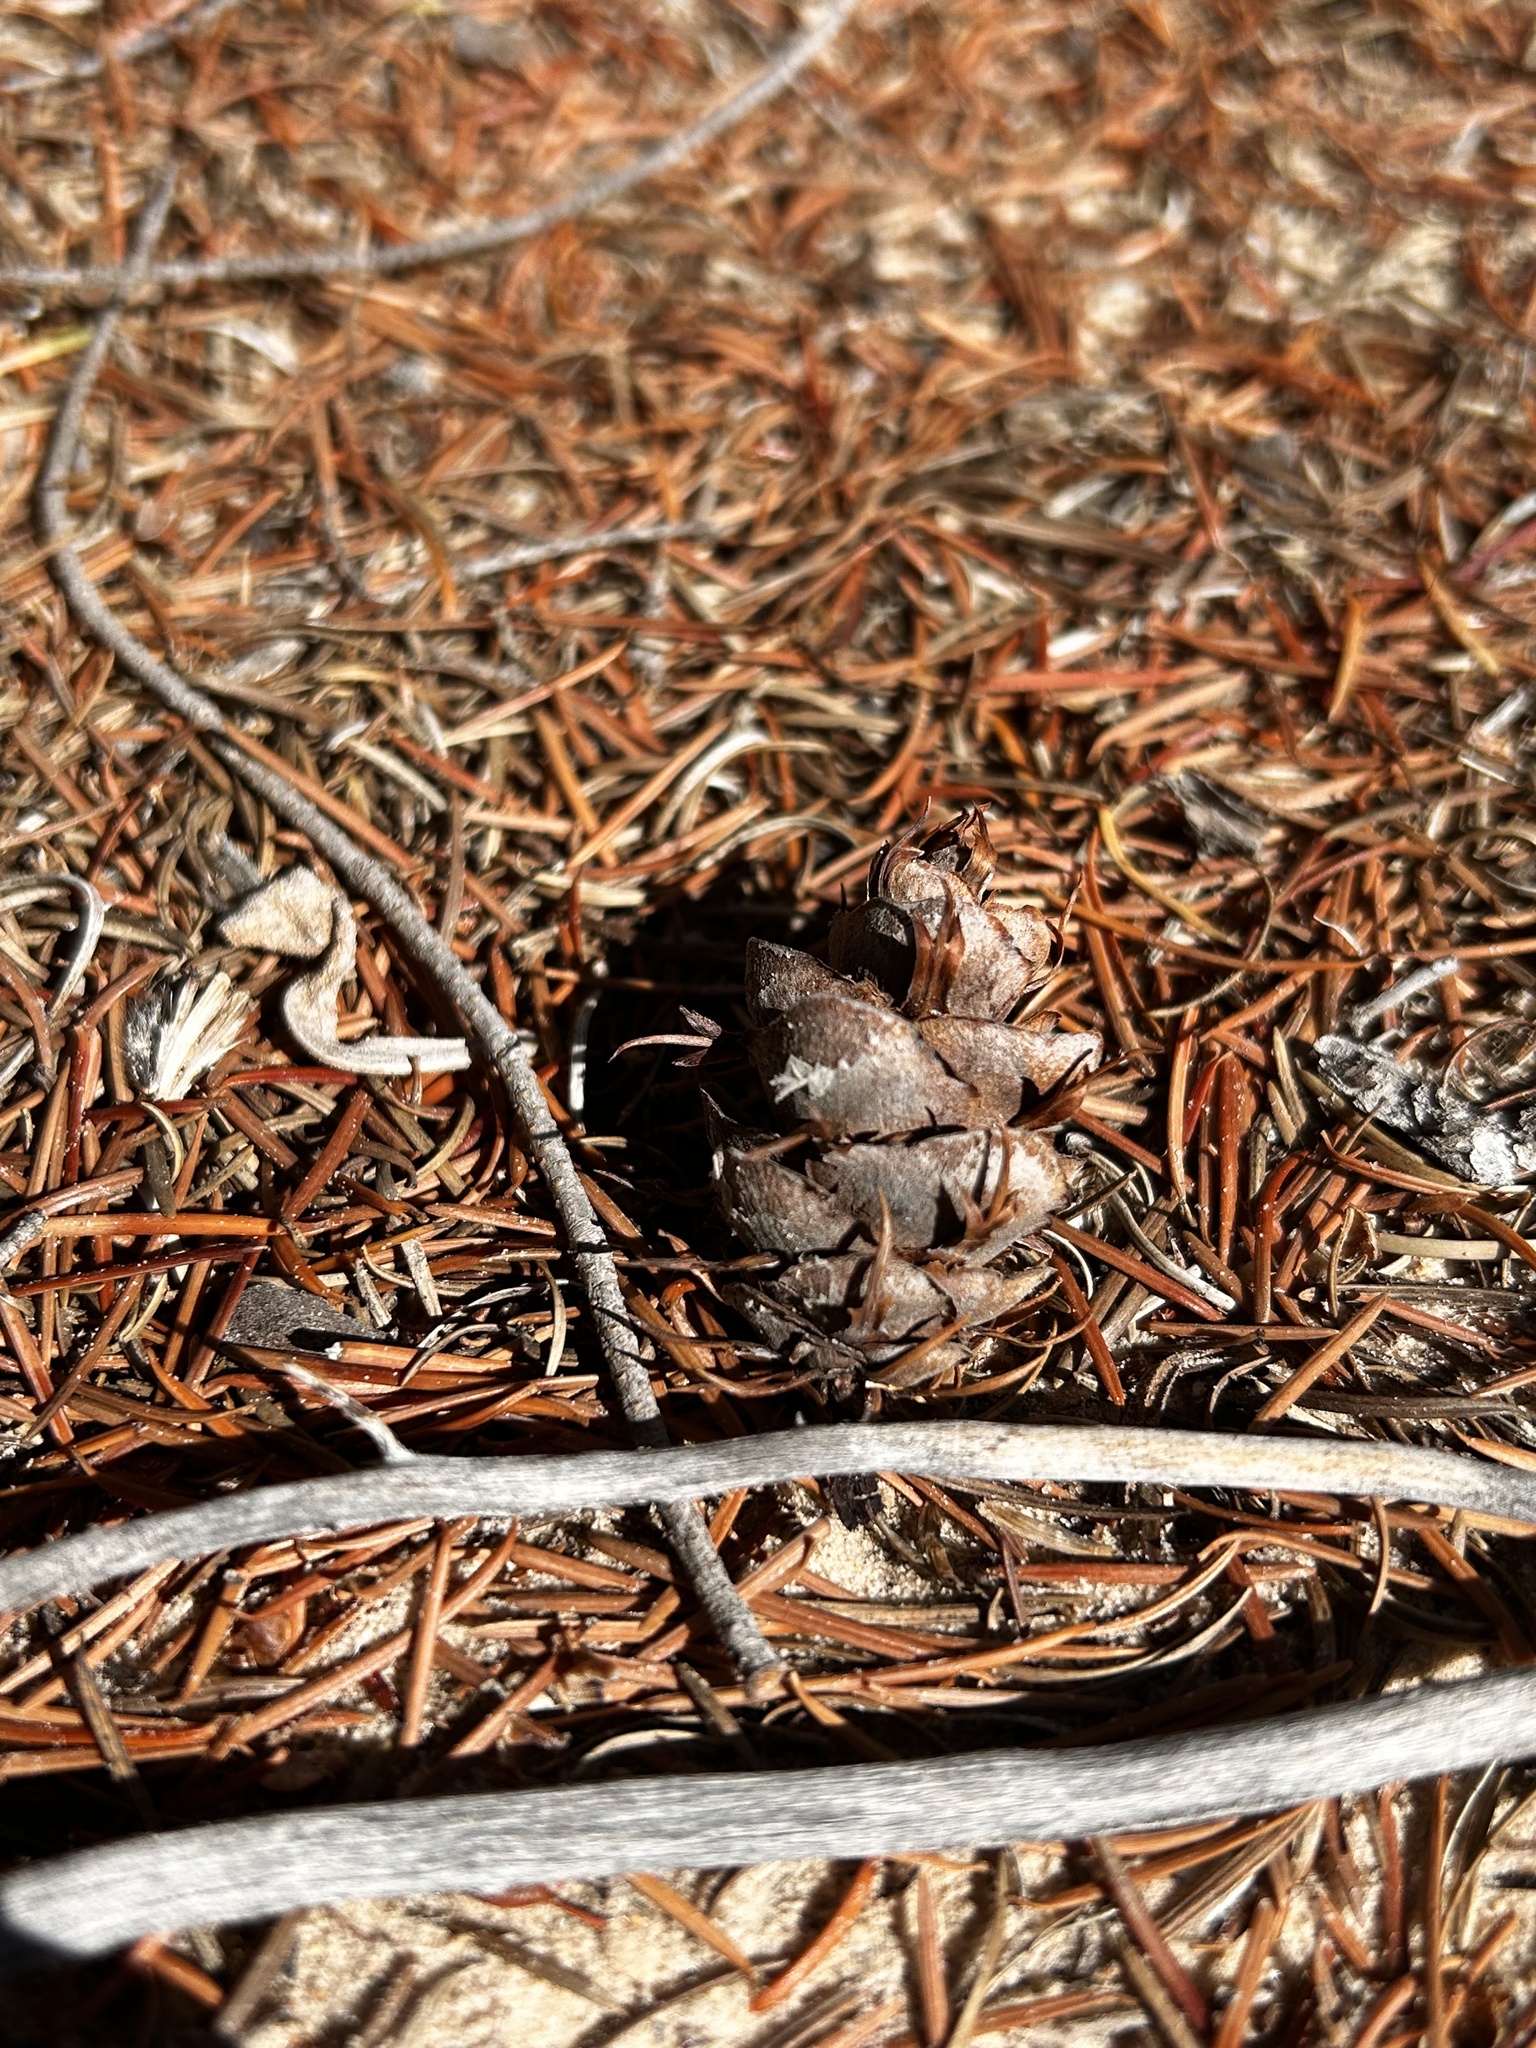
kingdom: Plantae
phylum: Tracheophyta
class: Pinopsida
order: Pinales
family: Pinaceae
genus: Pseudotsuga
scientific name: Pseudotsuga menziesii
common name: Douglas fir
